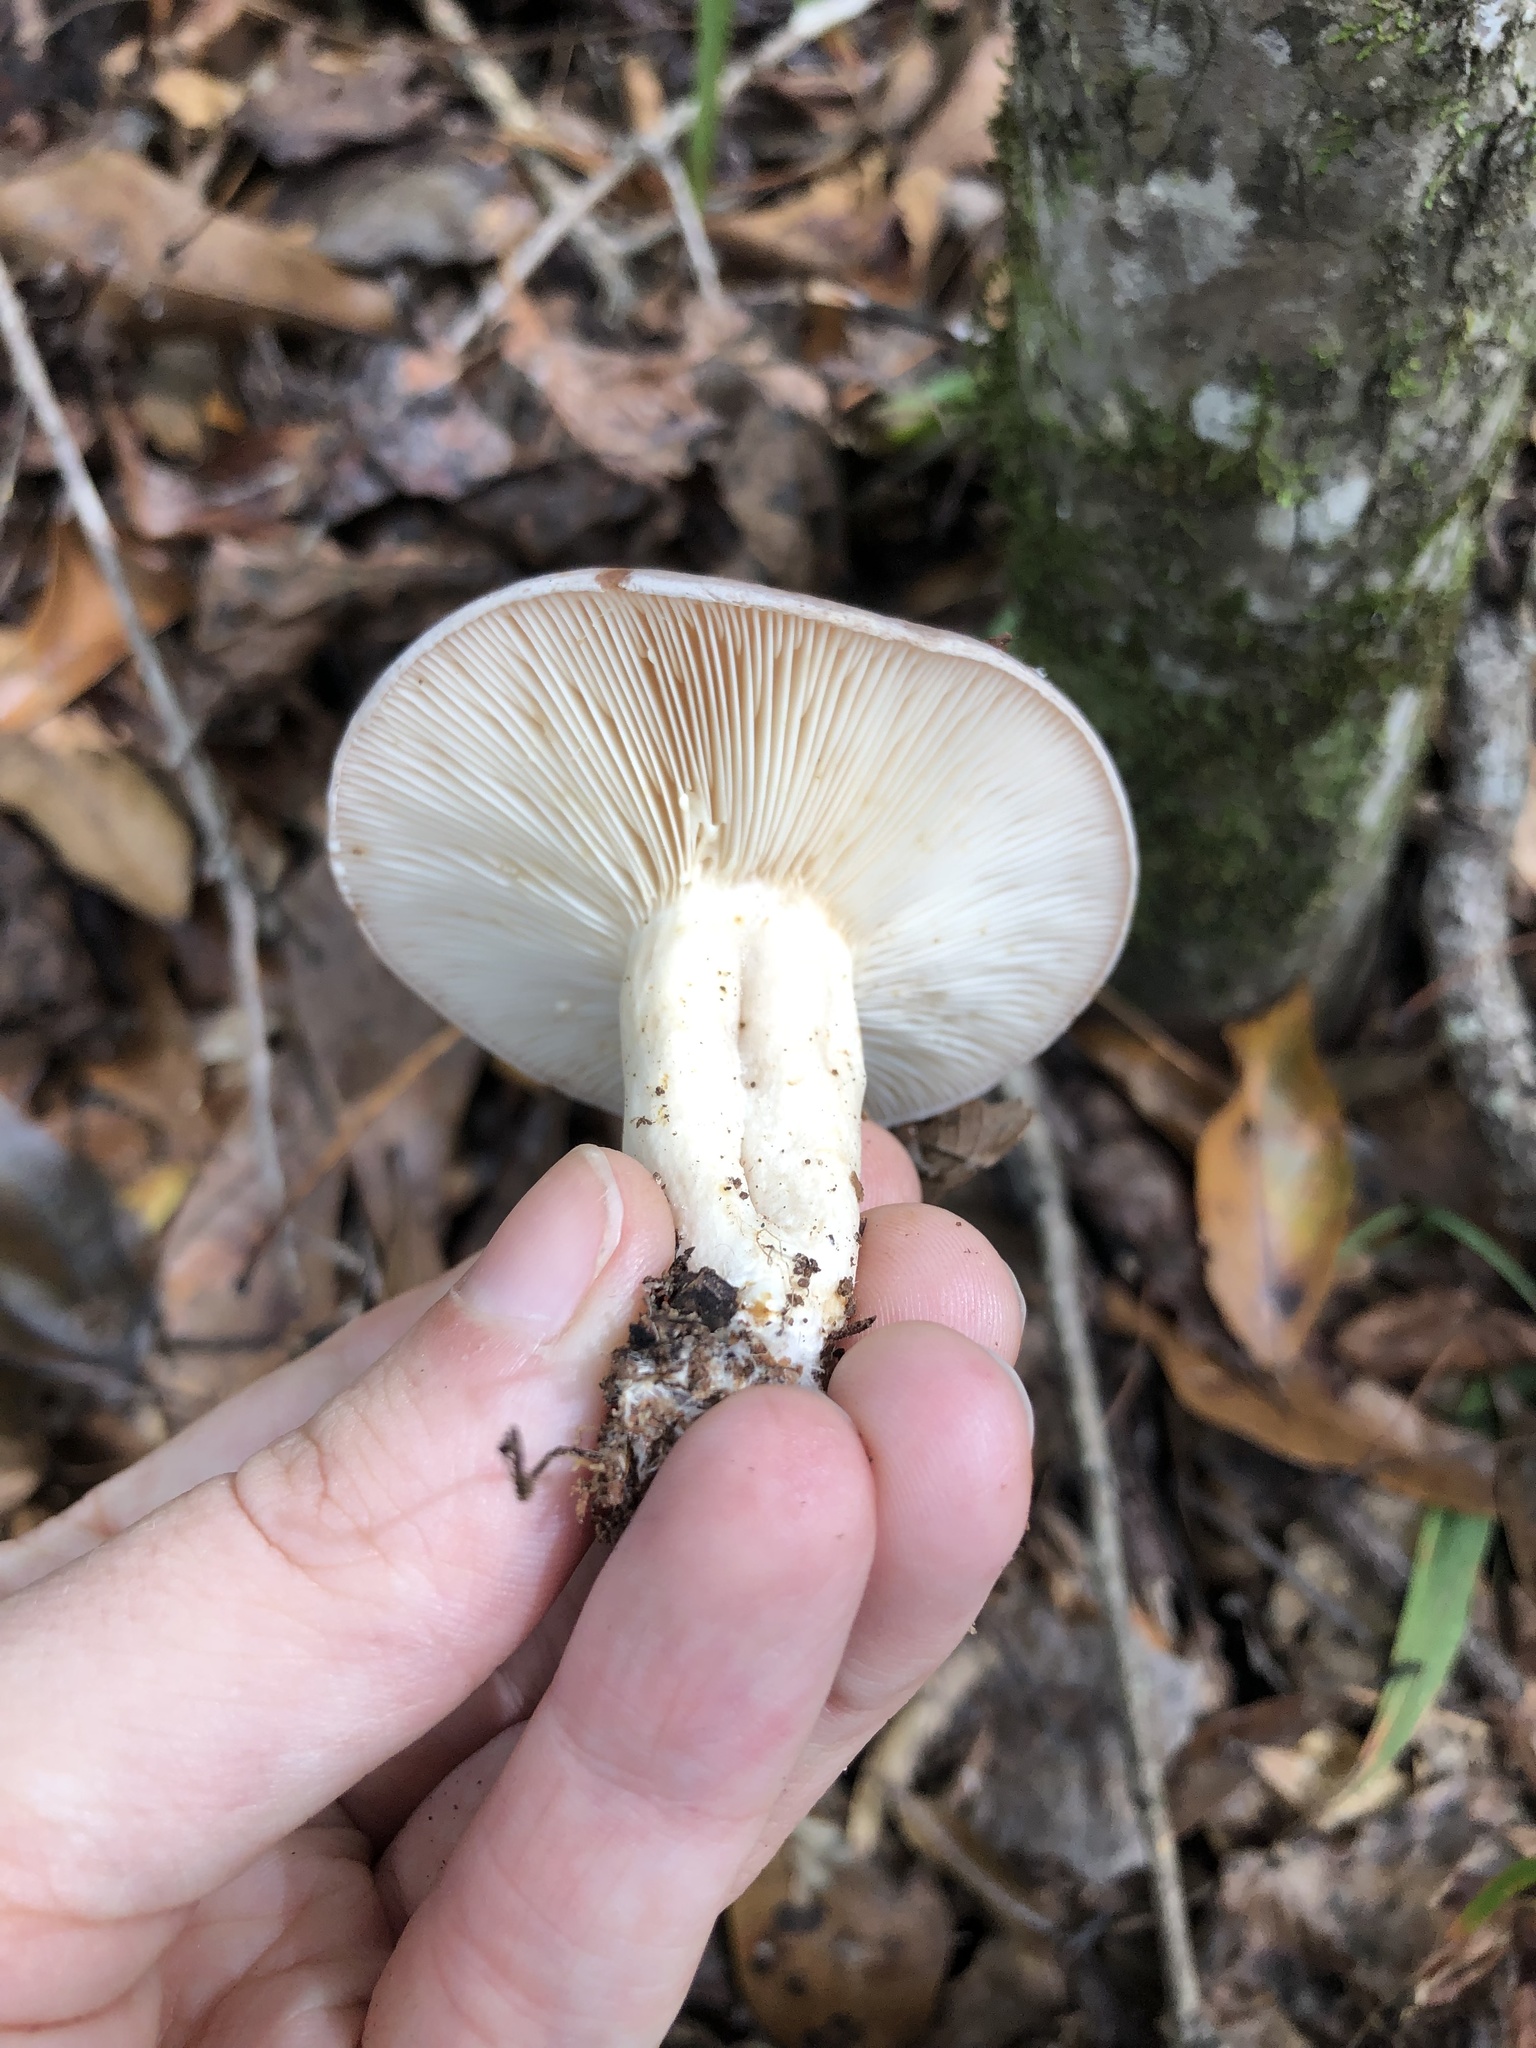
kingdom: Fungi
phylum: Basidiomycota
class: Agaricomycetes
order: Russulales
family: Russulaceae
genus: Lactarius
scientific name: Lactarius argillaceifolius
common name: Clay-gilled milkcap
